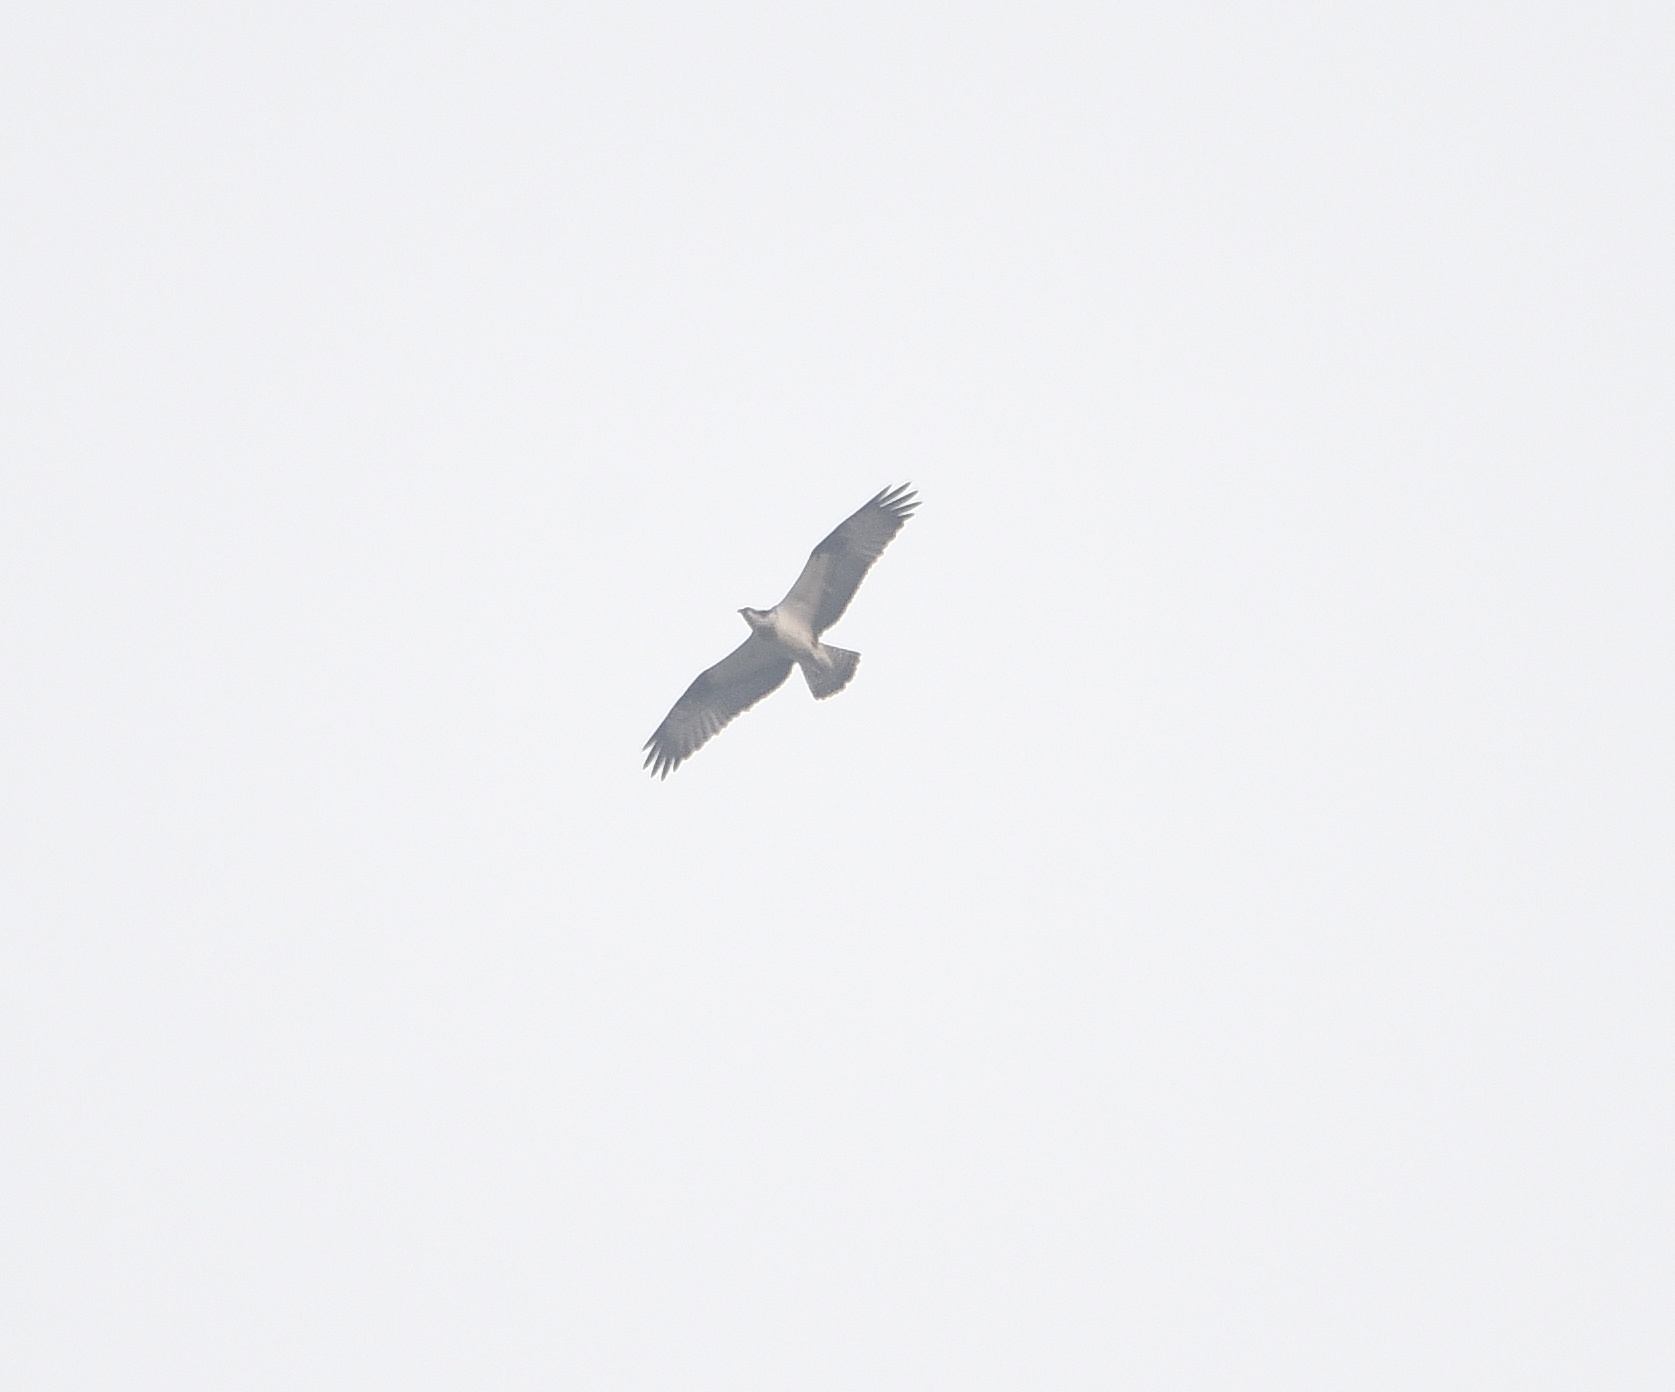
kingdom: Animalia
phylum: Chordata
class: Aves
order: Accipitriformes
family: Pandionidae
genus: Pandion
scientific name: Pandion haliaetus
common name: Osprey
